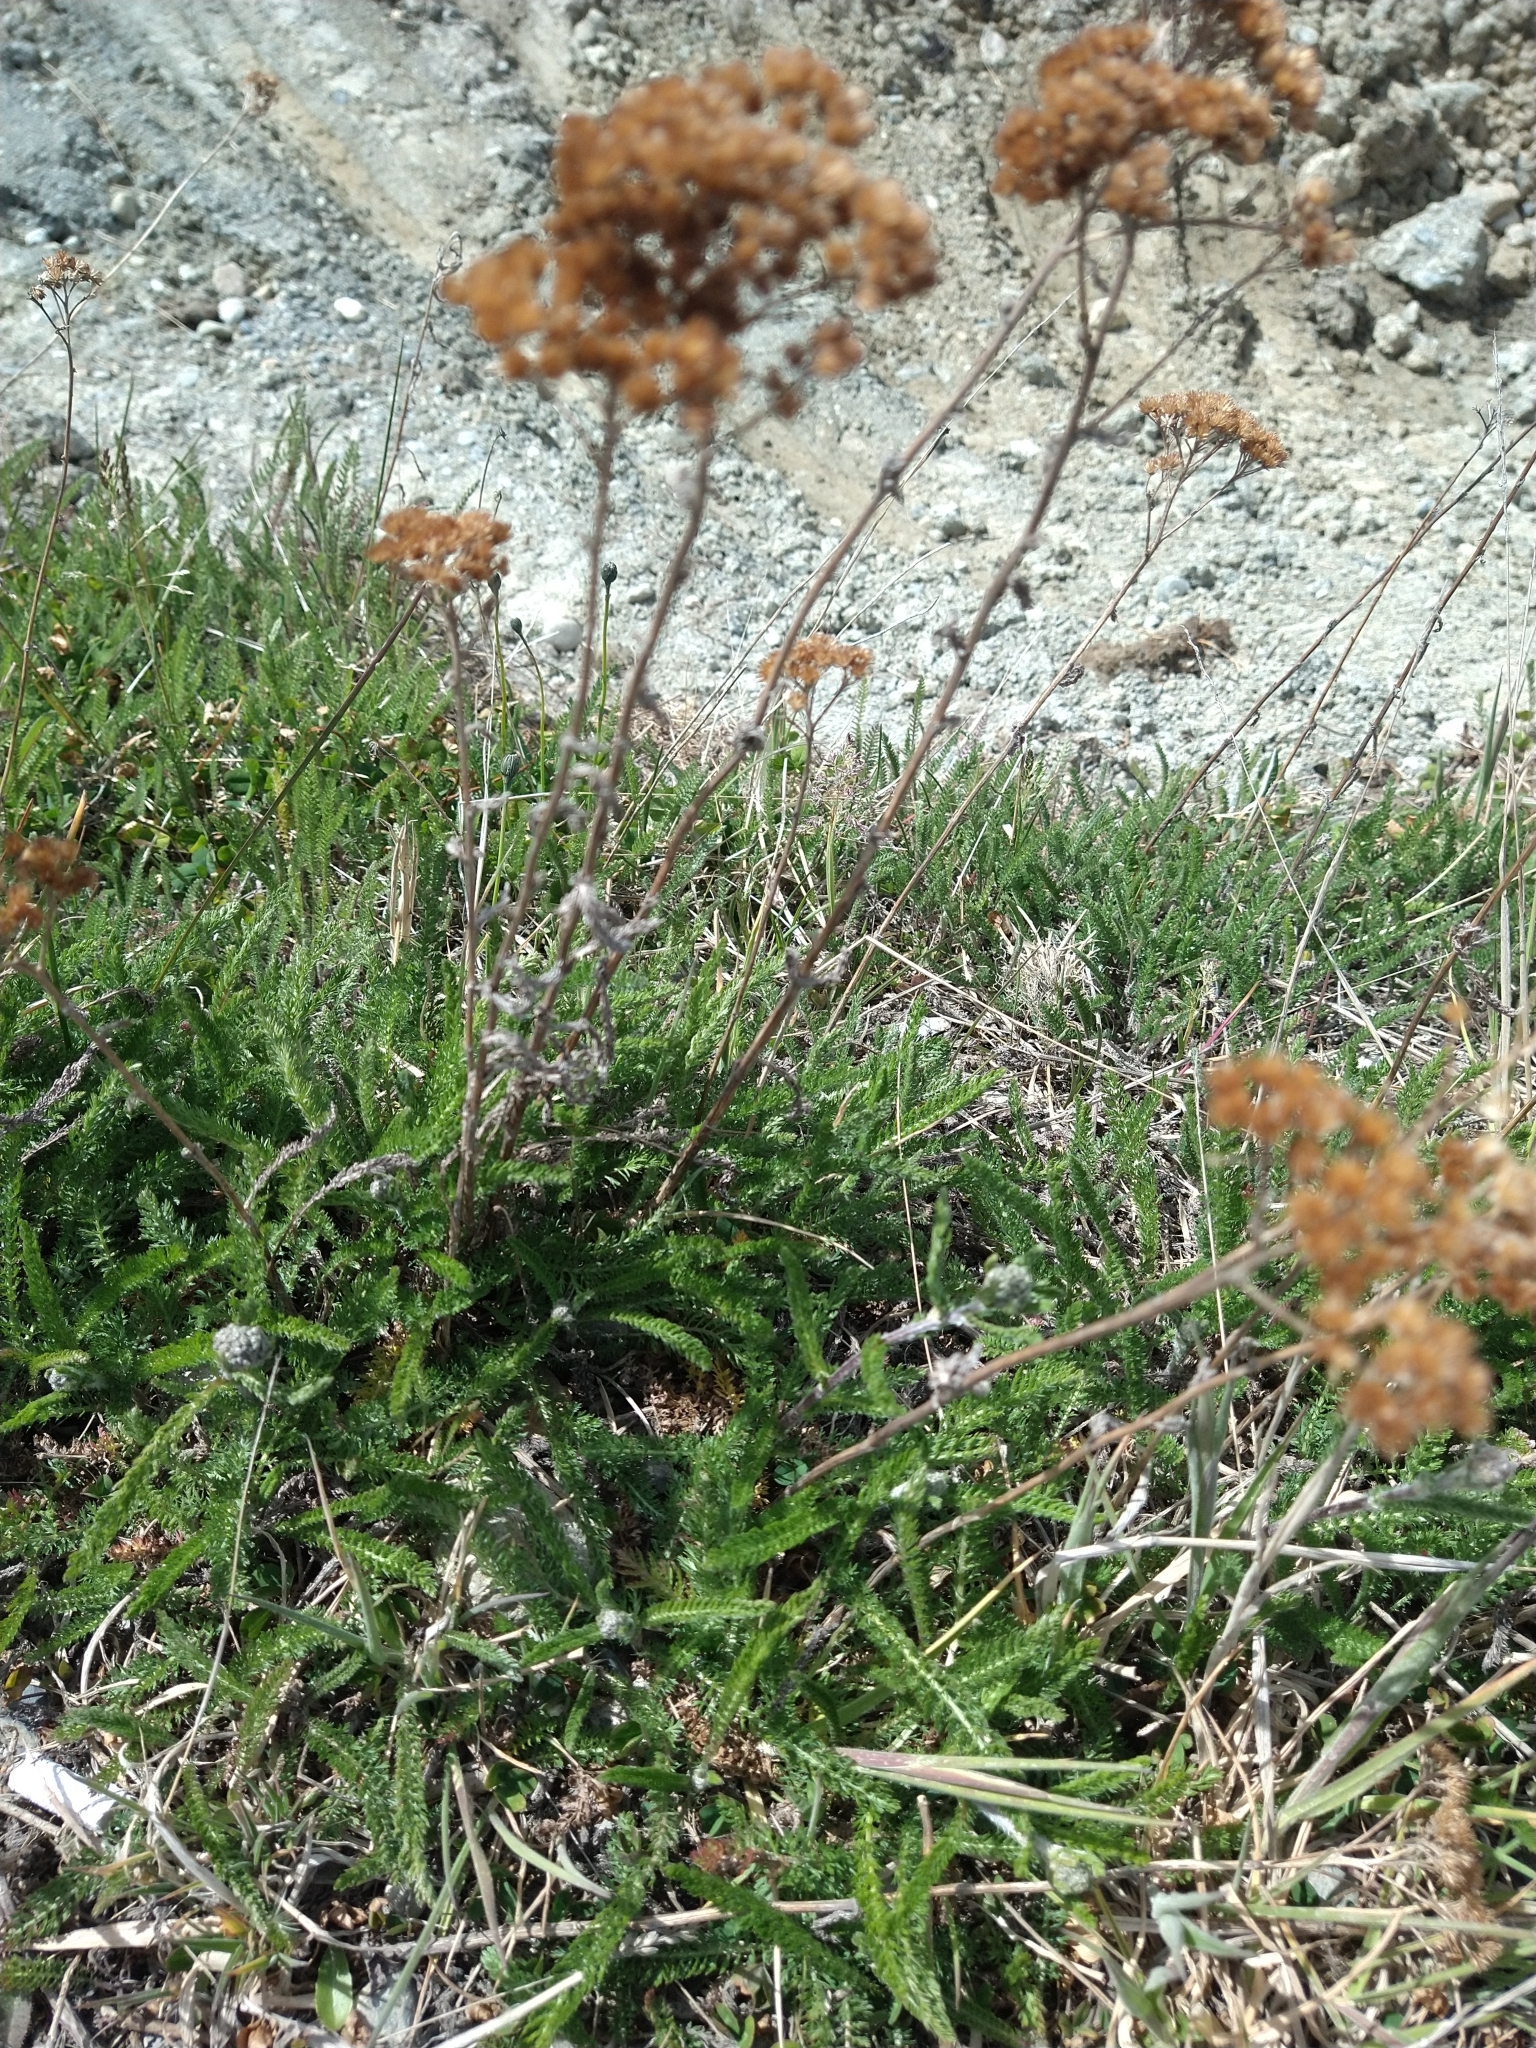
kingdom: Plantae
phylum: Tracheophyta
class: Magnoliopsida
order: Asterales
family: Asteraceae
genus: Achillea
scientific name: Achillea millefolium
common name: Yarrow
